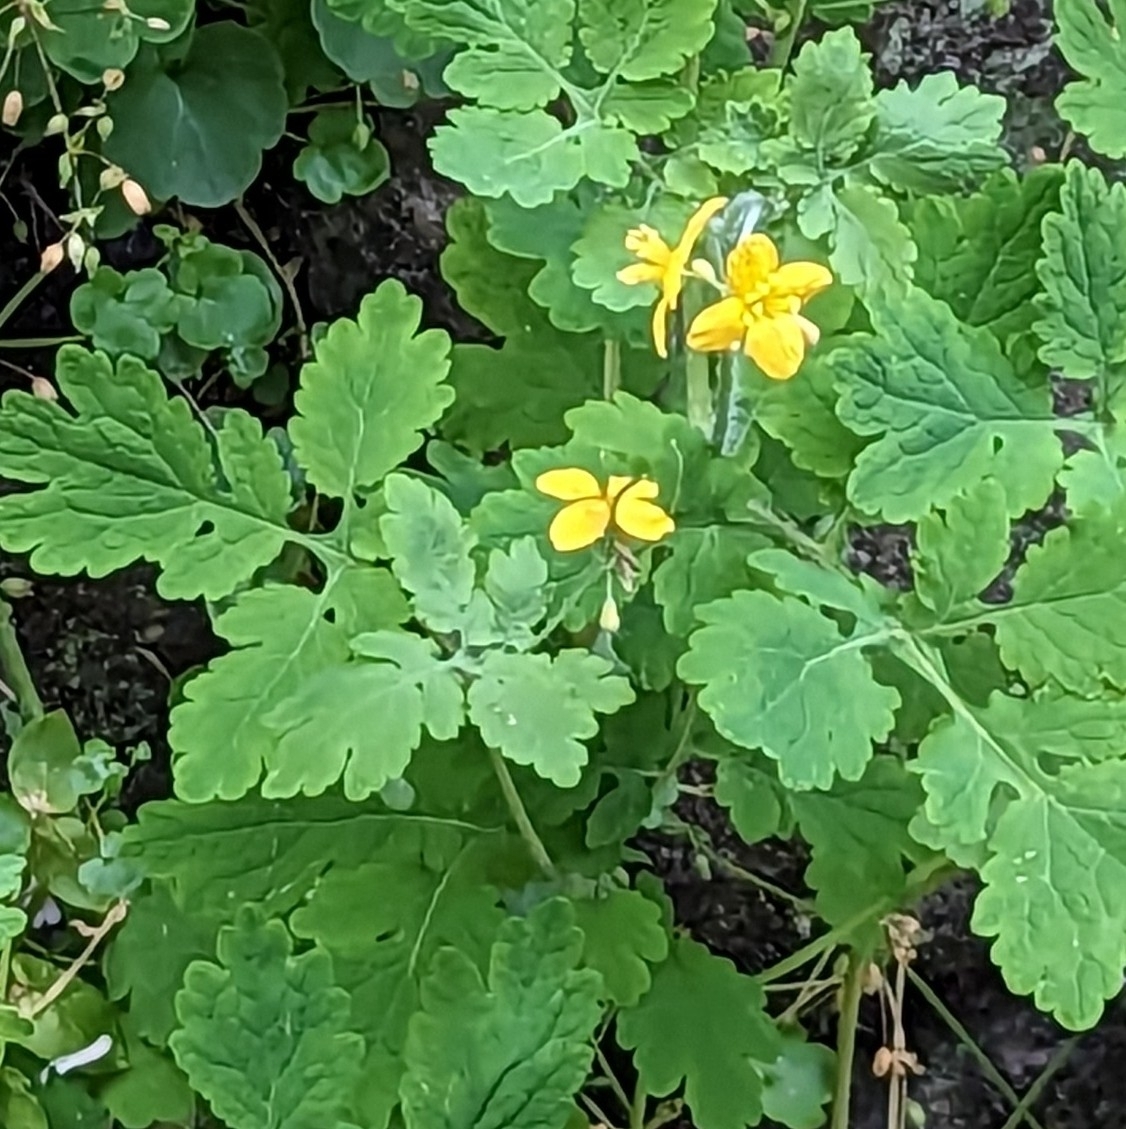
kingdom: Plantae
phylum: Tracheophyta
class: Magnoliopsida
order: Ranunculales
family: Papaveraceae
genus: Chelidonium
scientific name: Chelidonium majus
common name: Greater celandine
